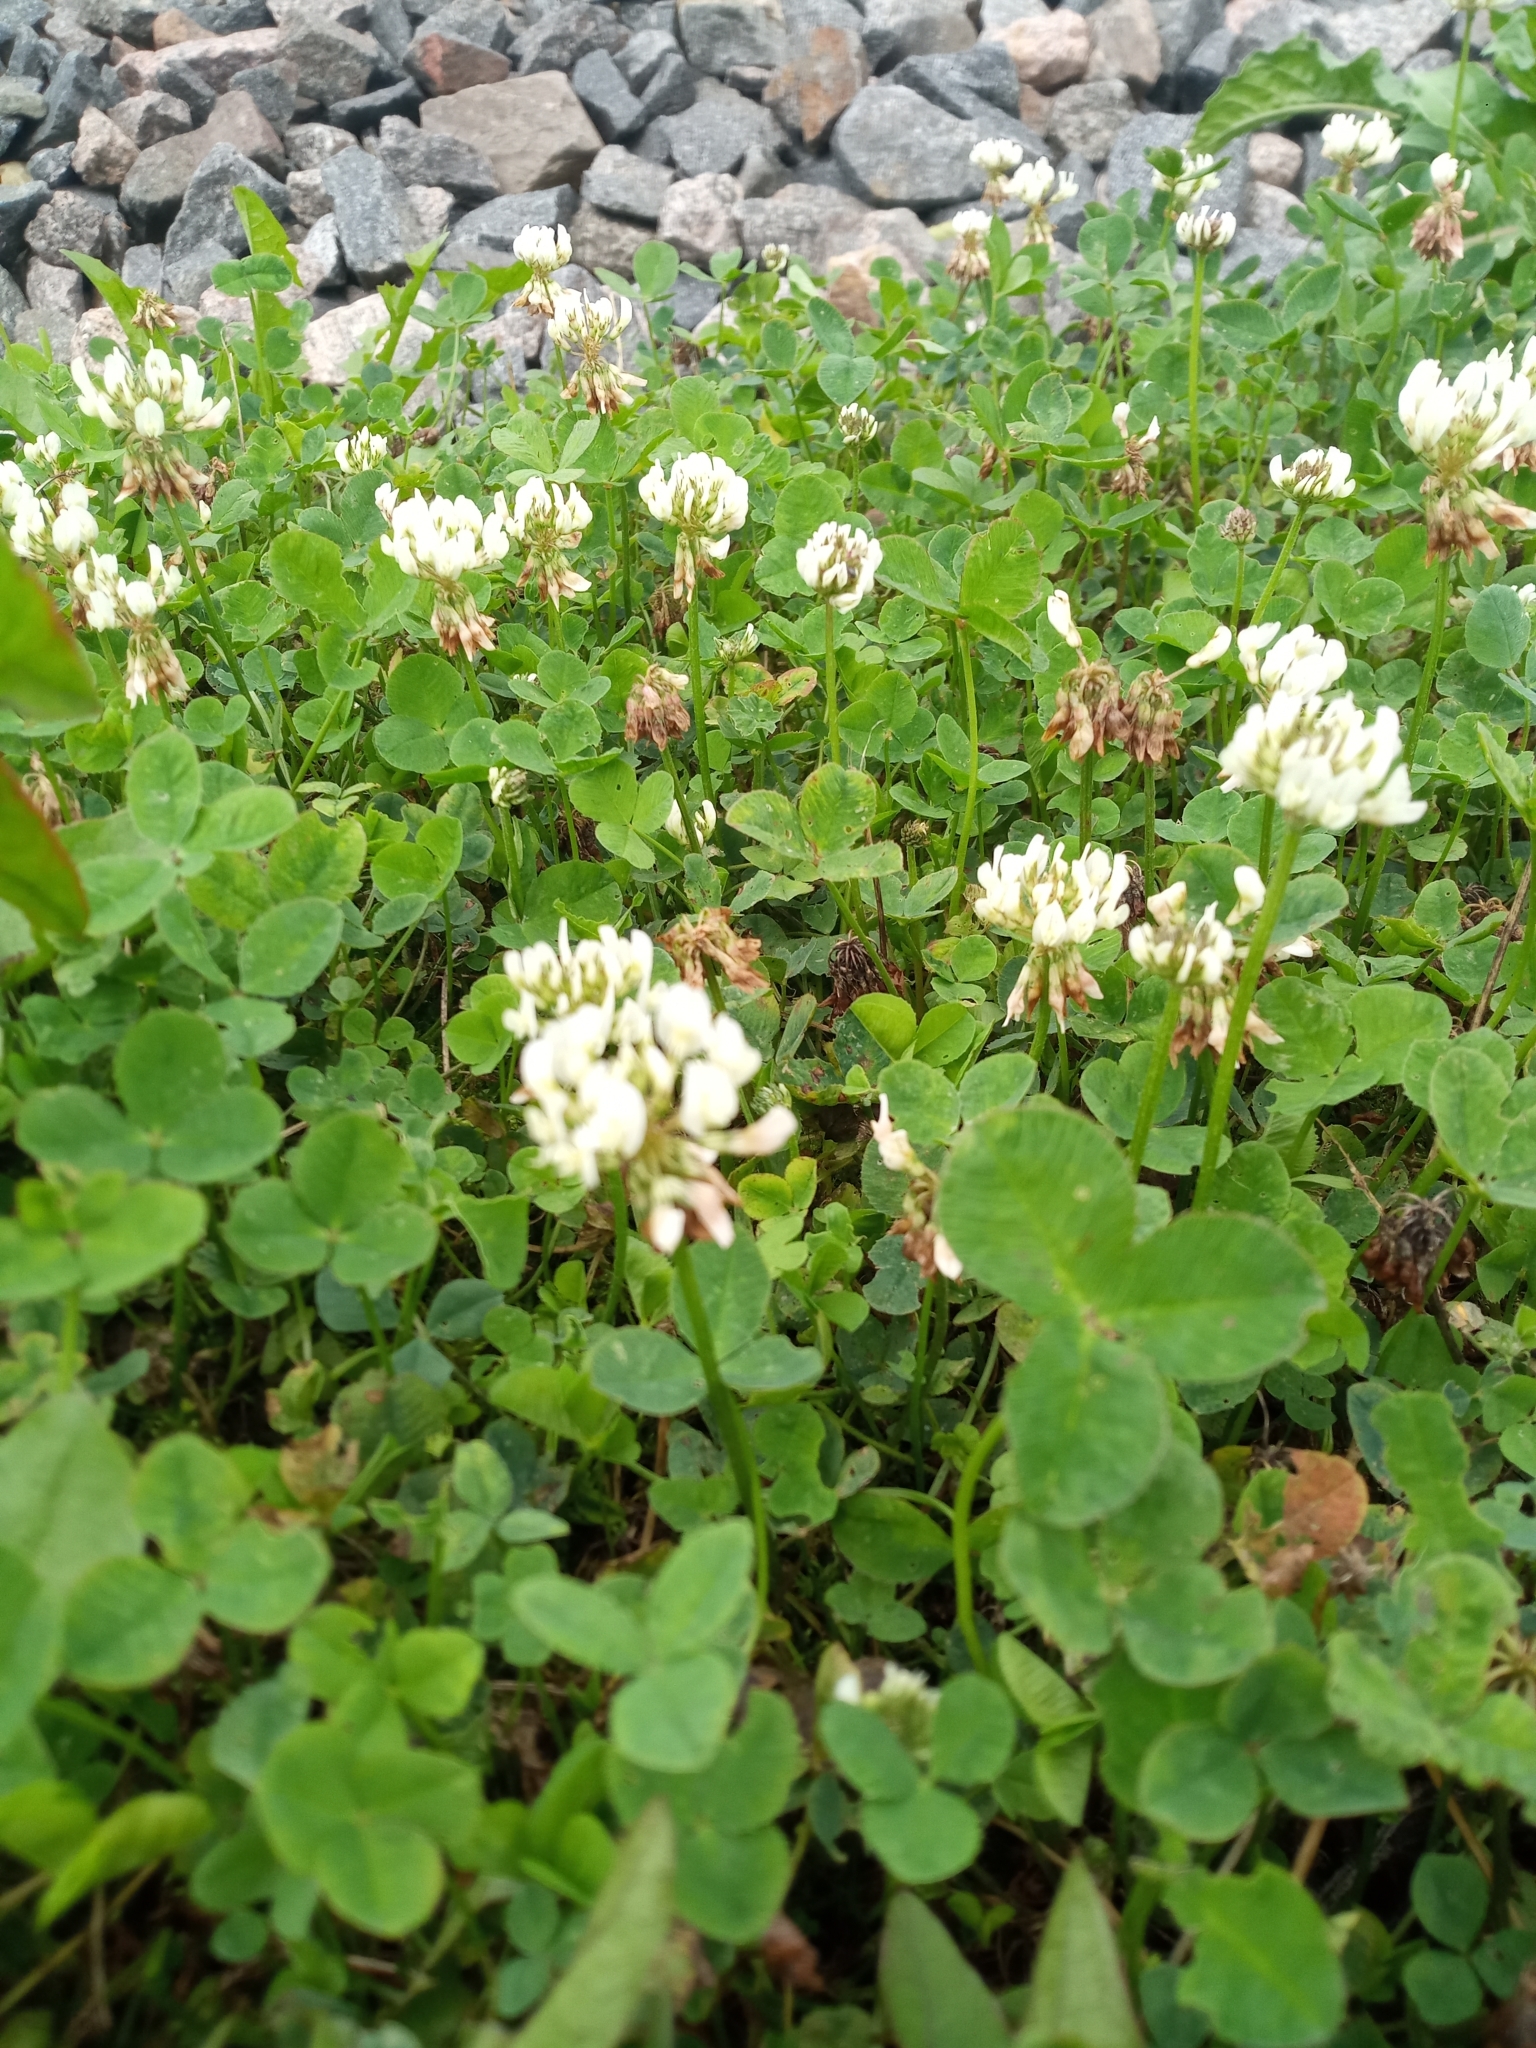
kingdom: Plantae
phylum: Tracheophyta
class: Magnoliopsida
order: Fabales
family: Fabaceae
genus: Trifolium
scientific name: Trifolium repens
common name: White clover
